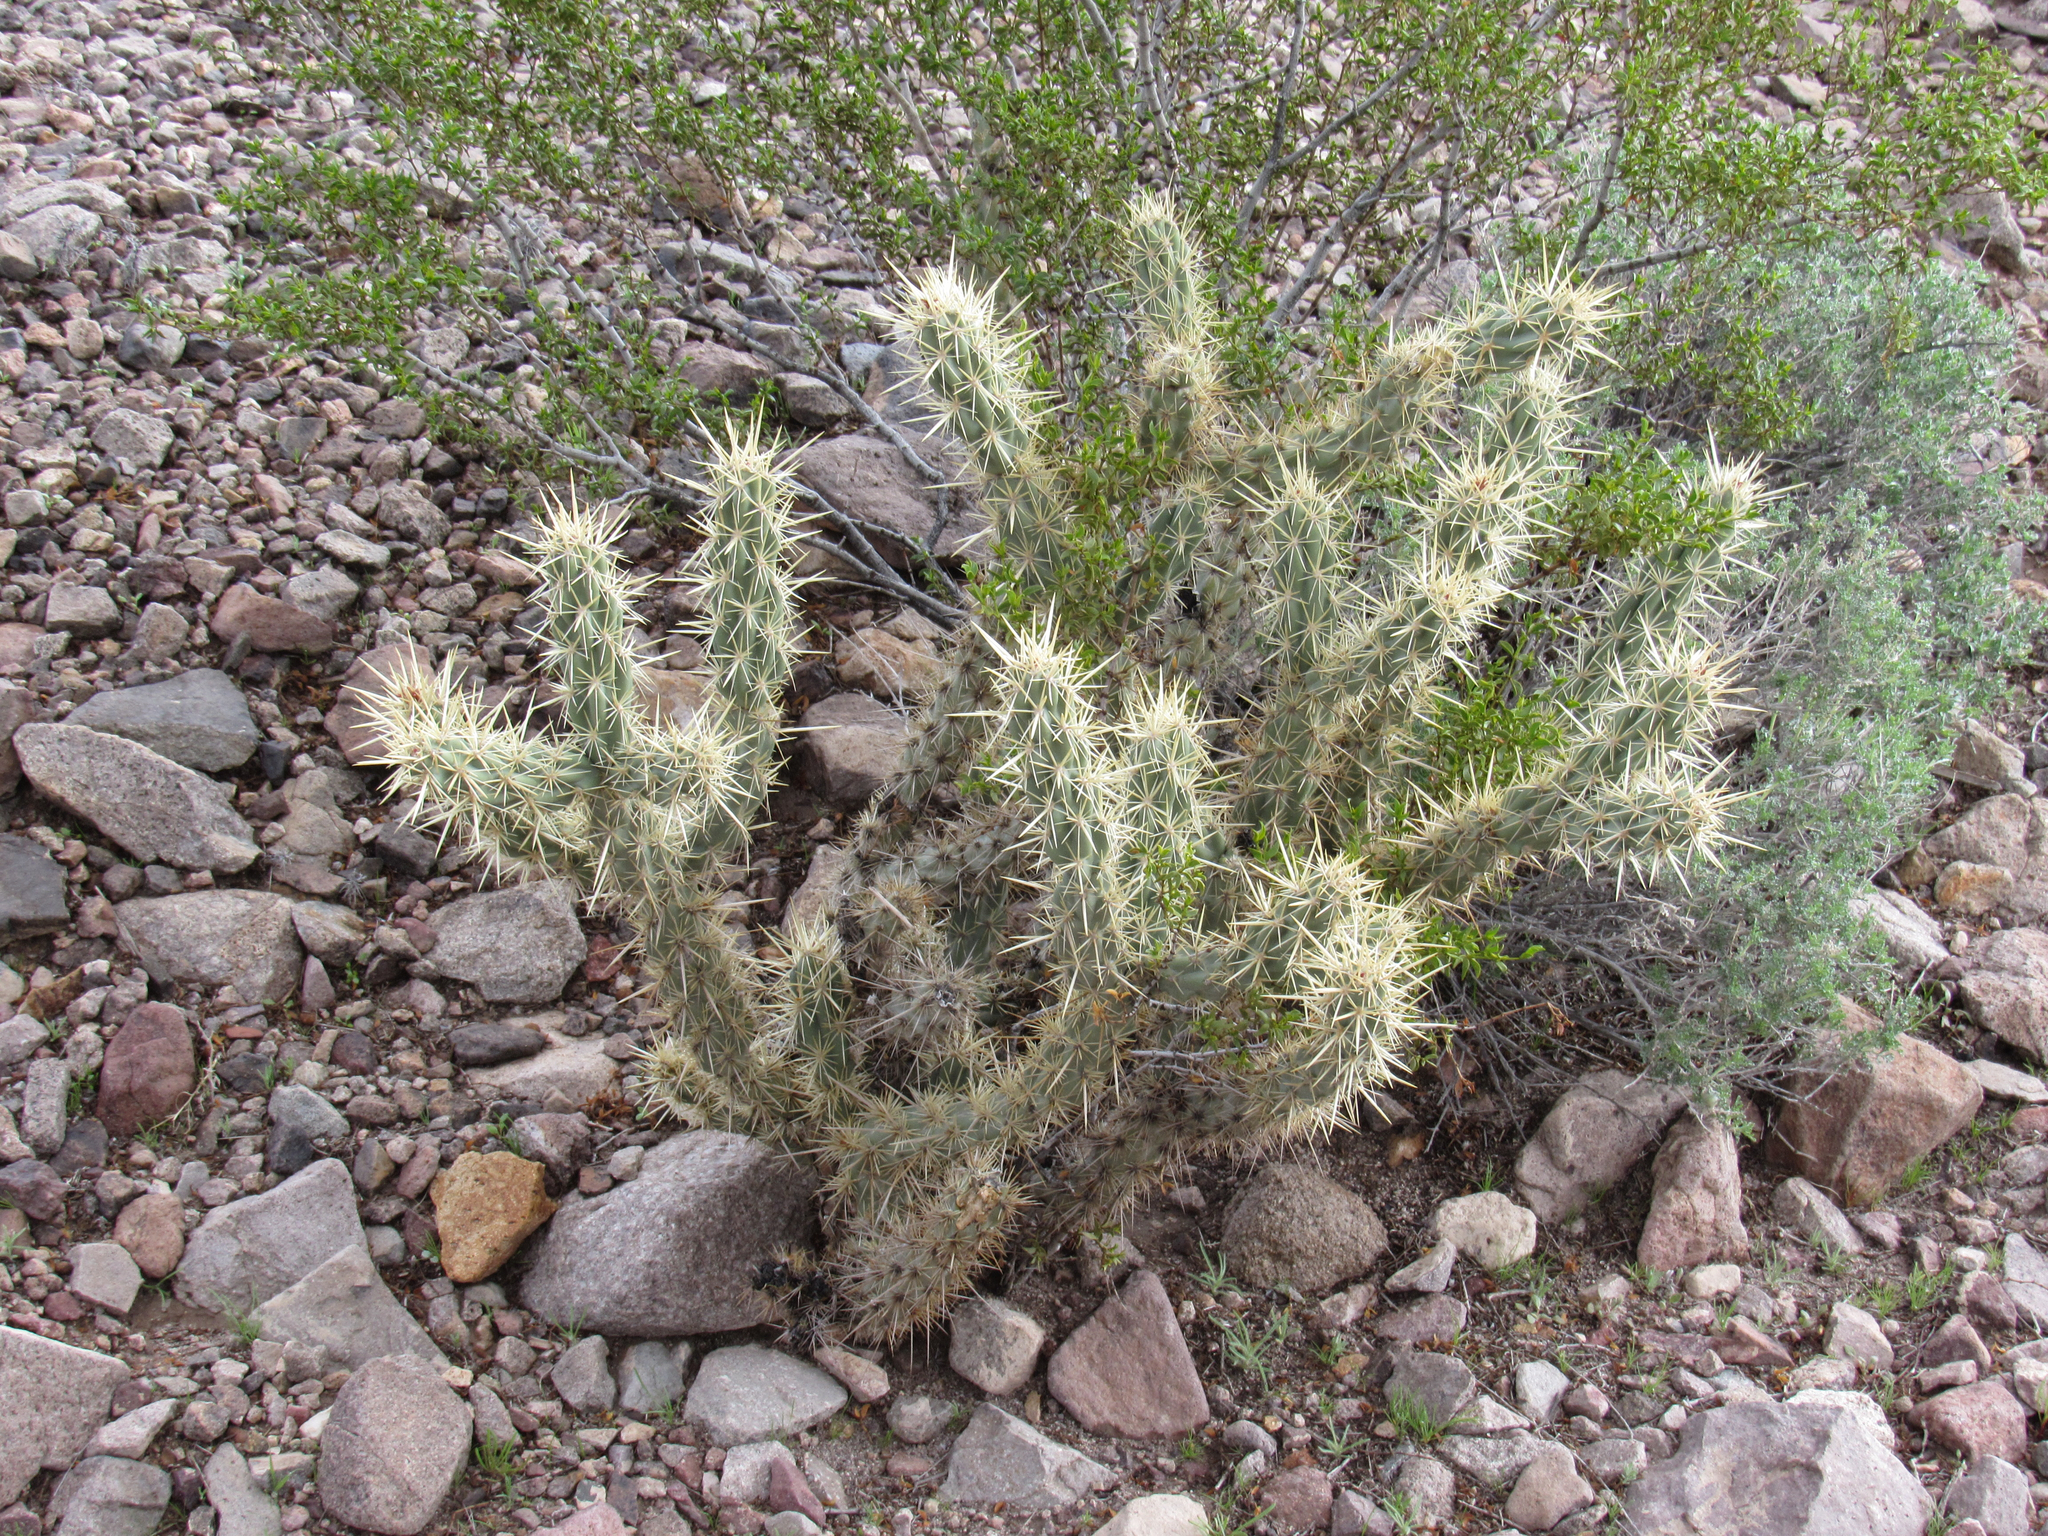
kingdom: Plantae
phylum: Tracheophyta
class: Magnoliopsida
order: Caryophyllales
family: Cactaceae
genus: Cylindropuntia
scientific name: Cylindropuntia acanthocarpa
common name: Buckhorn cholla
